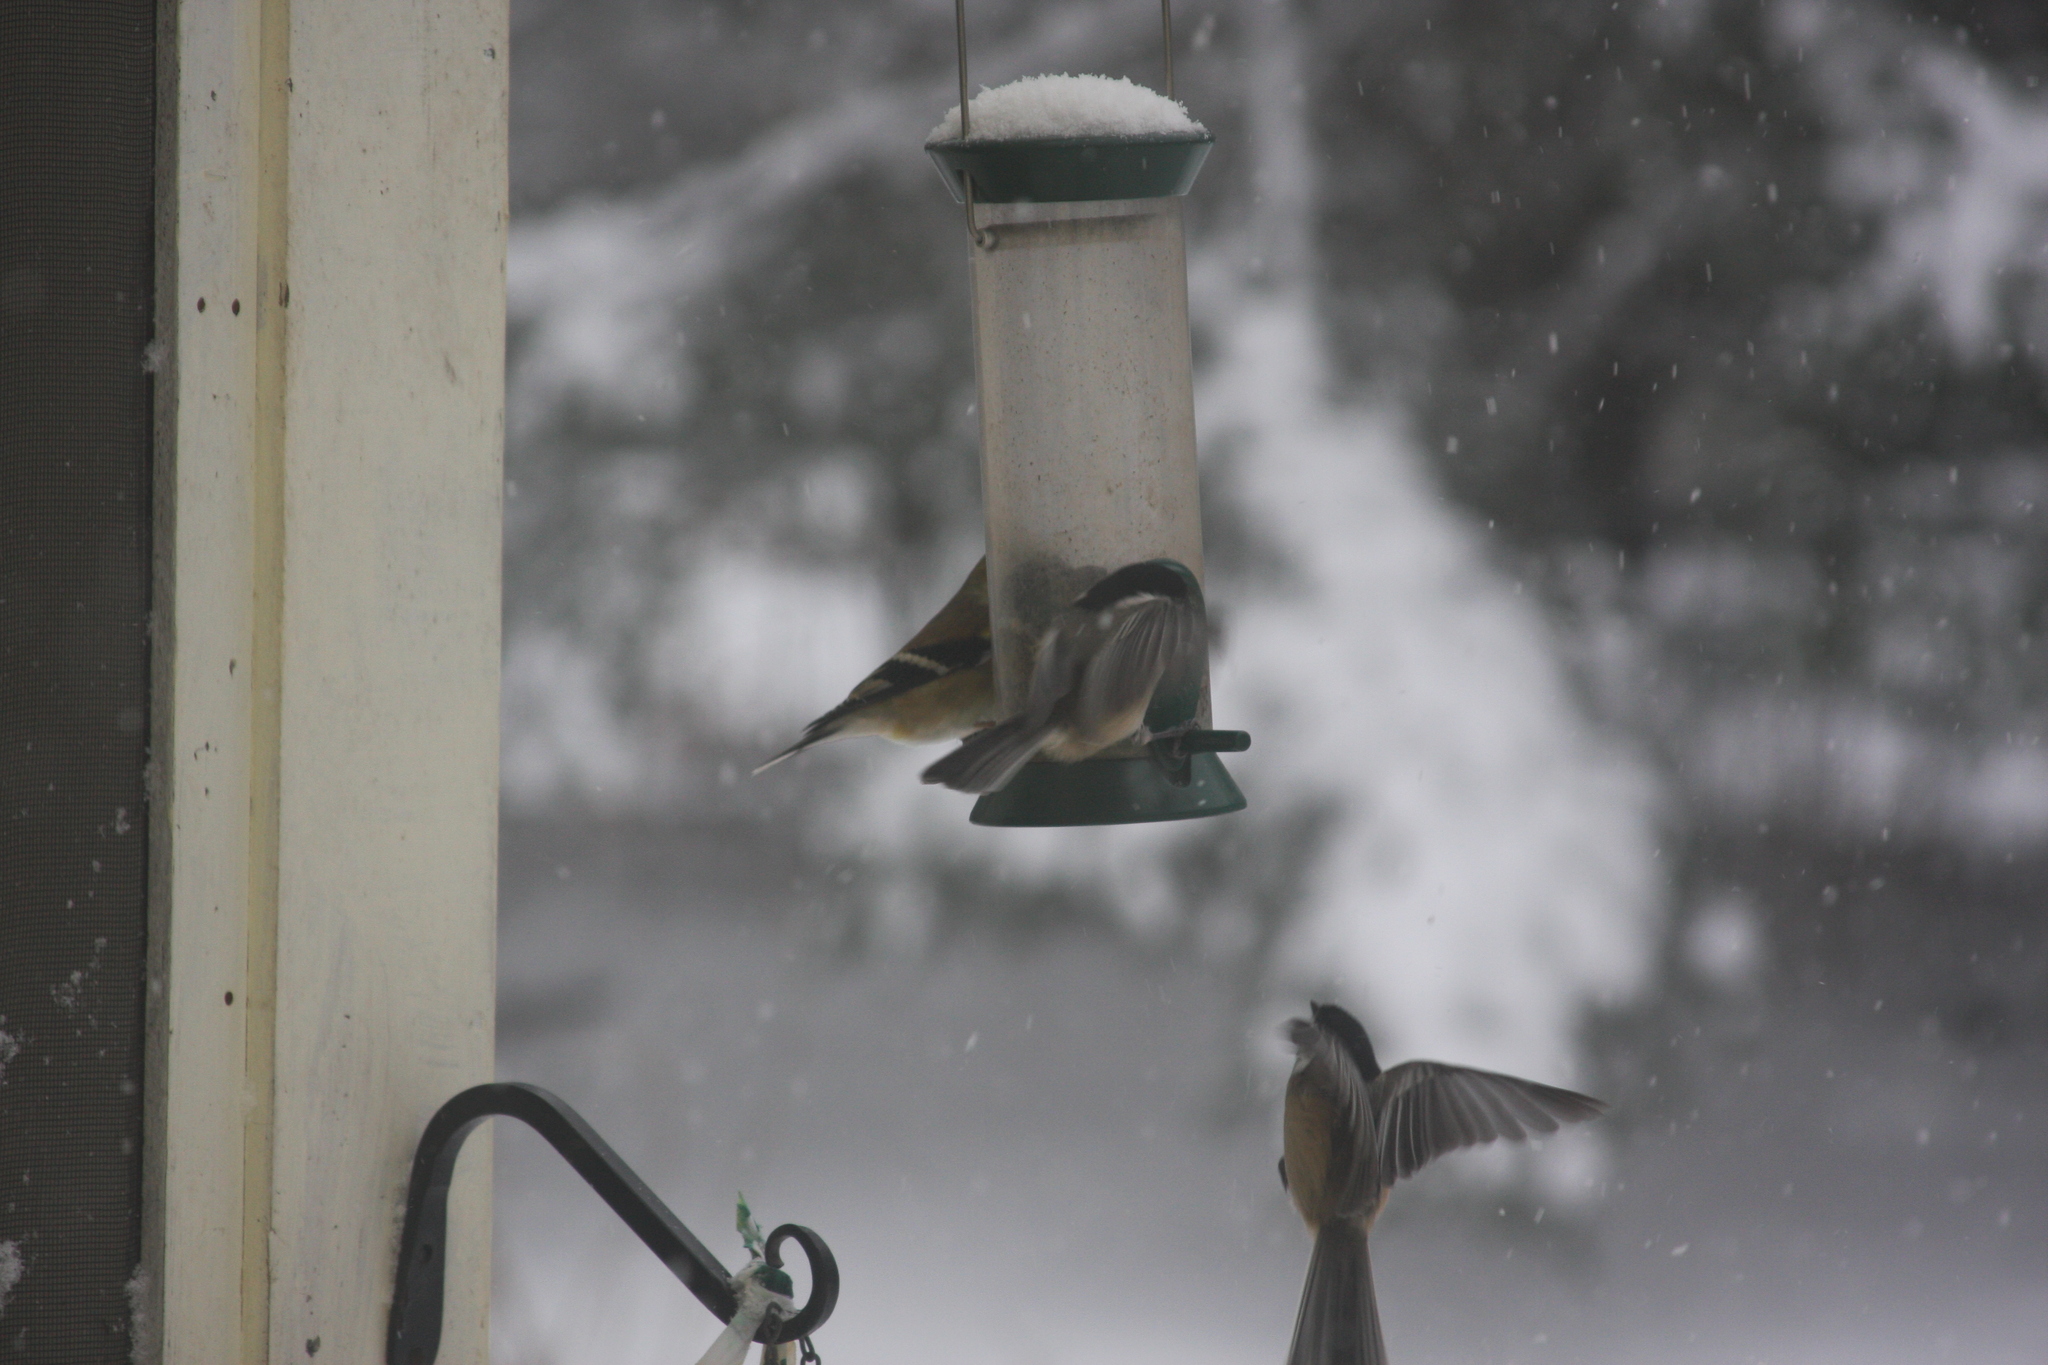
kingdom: Animalia
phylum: Chordata
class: Aves
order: Passeriformes
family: Paridae
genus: Poecile
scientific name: Poecile atricapillus
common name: Black-capped chickadee
